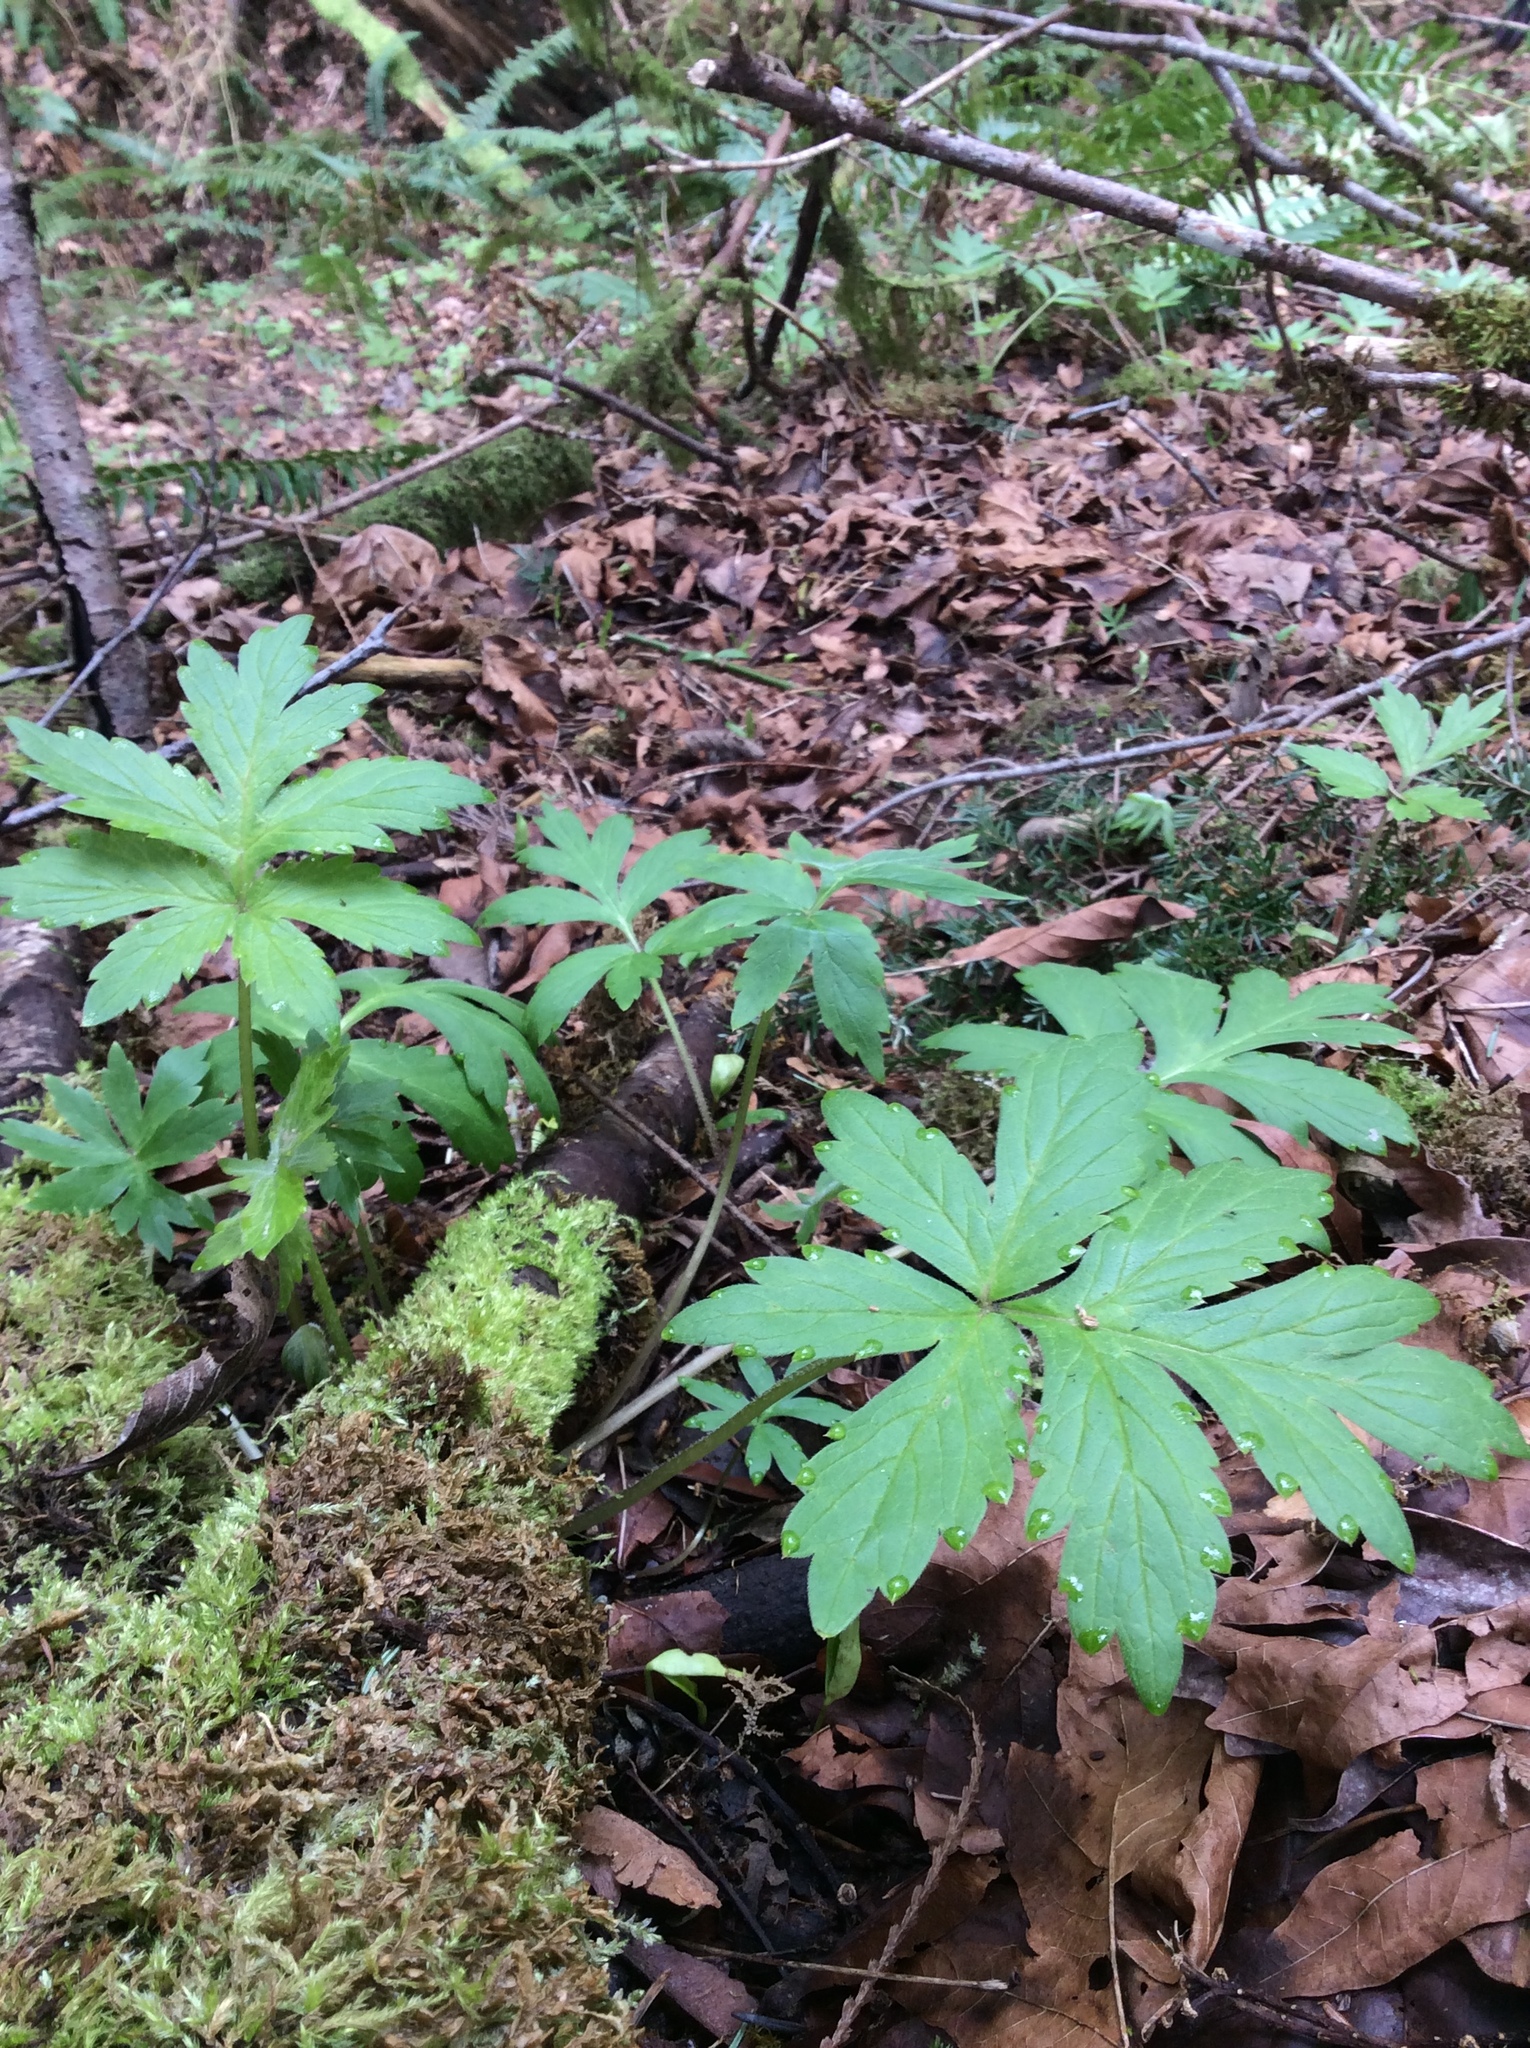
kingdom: Plantae
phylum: Tracheophyta
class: Magnoliopsida
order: Boraginales
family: Hydrophyllaceae
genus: Hydrophyllum
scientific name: Hydrophyllum tenuipes
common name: Pacific waterleaf
